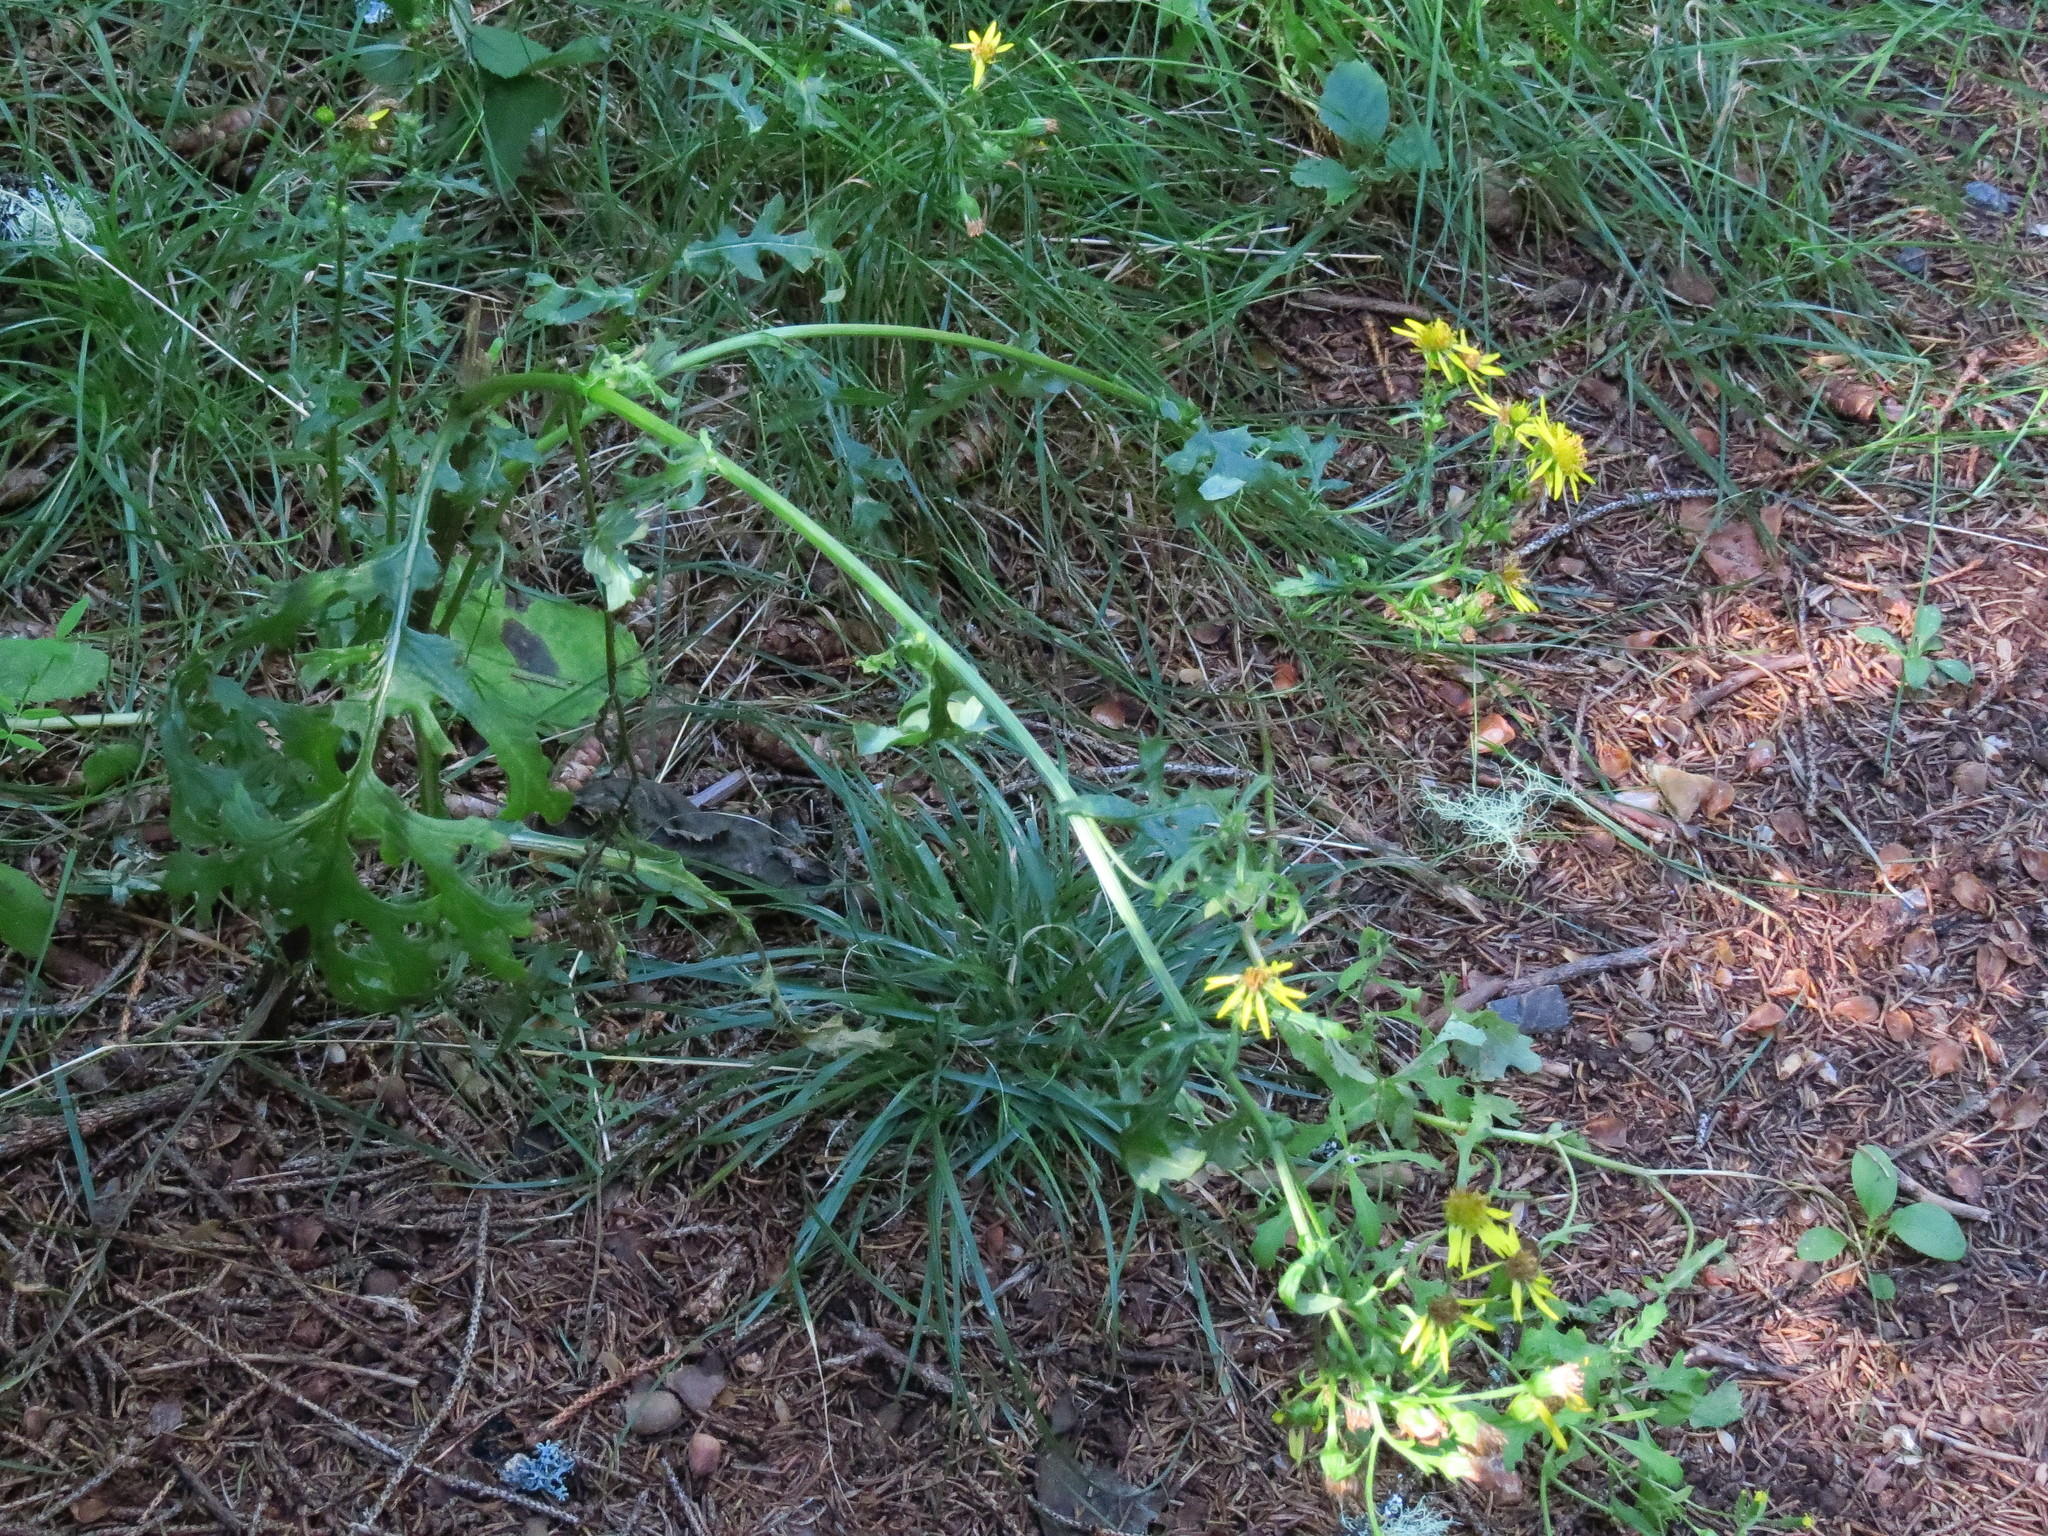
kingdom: Plantae
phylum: Tracheophyta
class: Magnoliopsida
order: Asterales
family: Asteraceae
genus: Jacobaea
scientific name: Jacobaea vulgaris
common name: Stinking willie
